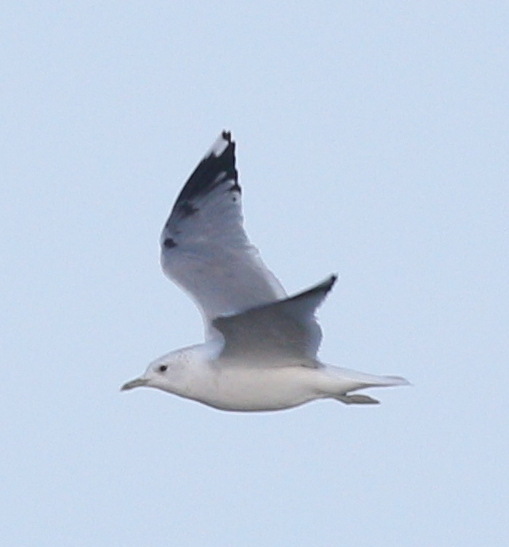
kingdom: Animalia
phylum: Chordata
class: Aves
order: Charadriiformes
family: Laridae
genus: Larus
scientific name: Larus canus
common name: Mew gull
